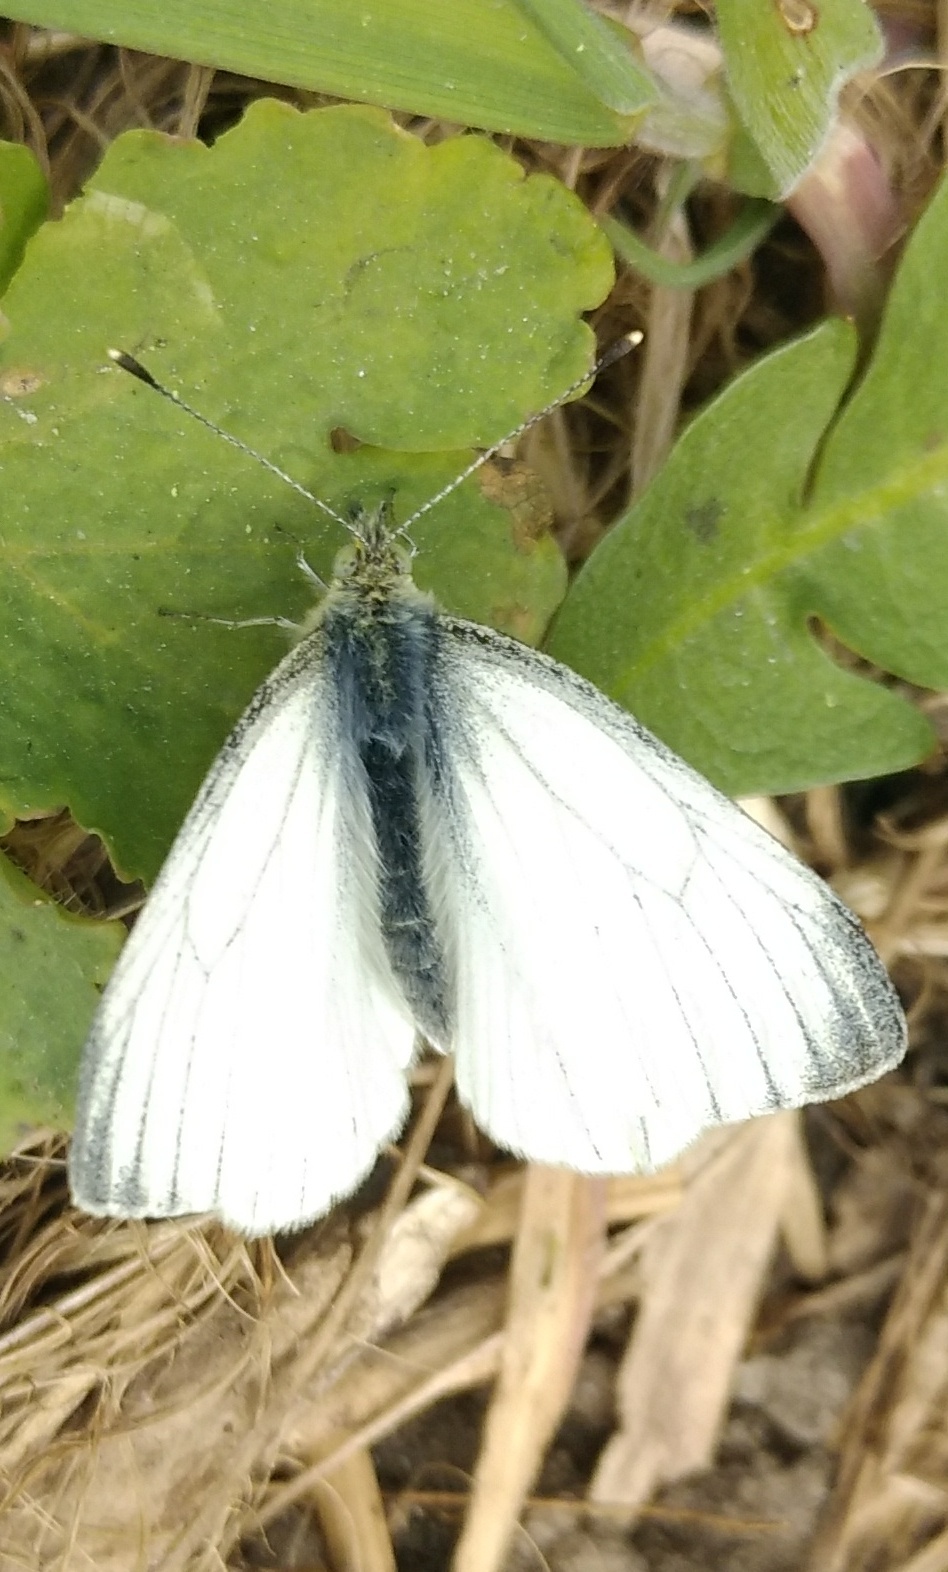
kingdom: Animalia
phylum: Arthropoda
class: Insecta
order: Lepidoptera
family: Pieridae
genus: Pieris
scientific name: Pieris napi
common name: Green-veined white
